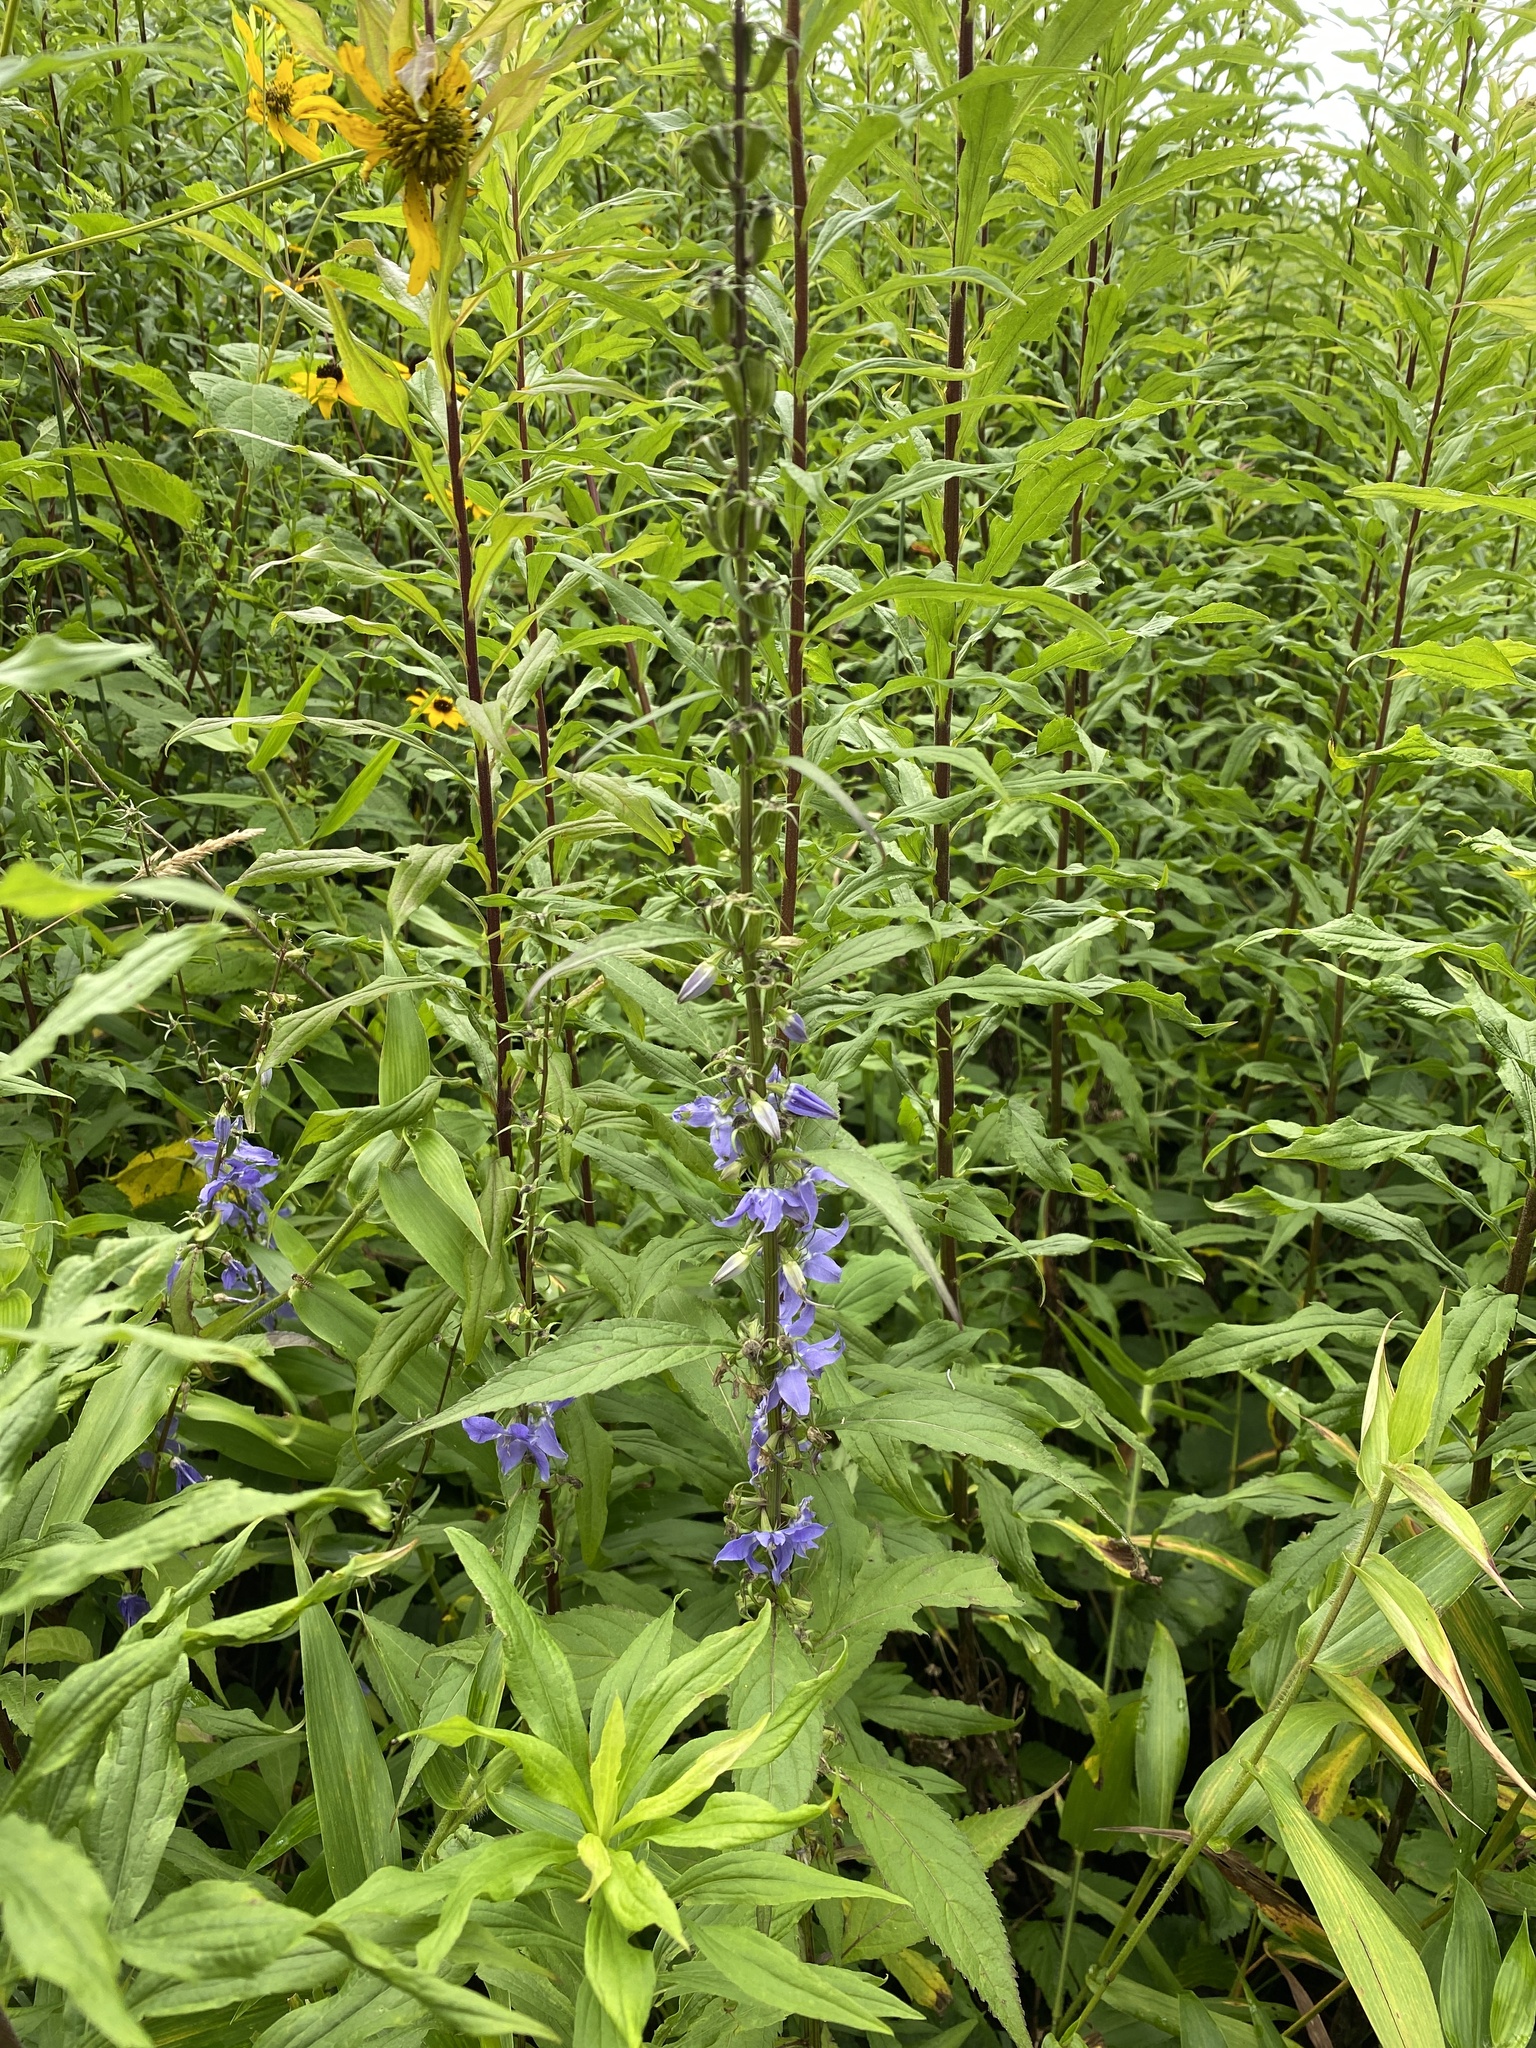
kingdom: Plantae
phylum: Tracheophyta
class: Magnoliopsida
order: Asterales
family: Campanulaceae
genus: Campanulastrum
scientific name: Campanulastrum americanum
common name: American bellflower
